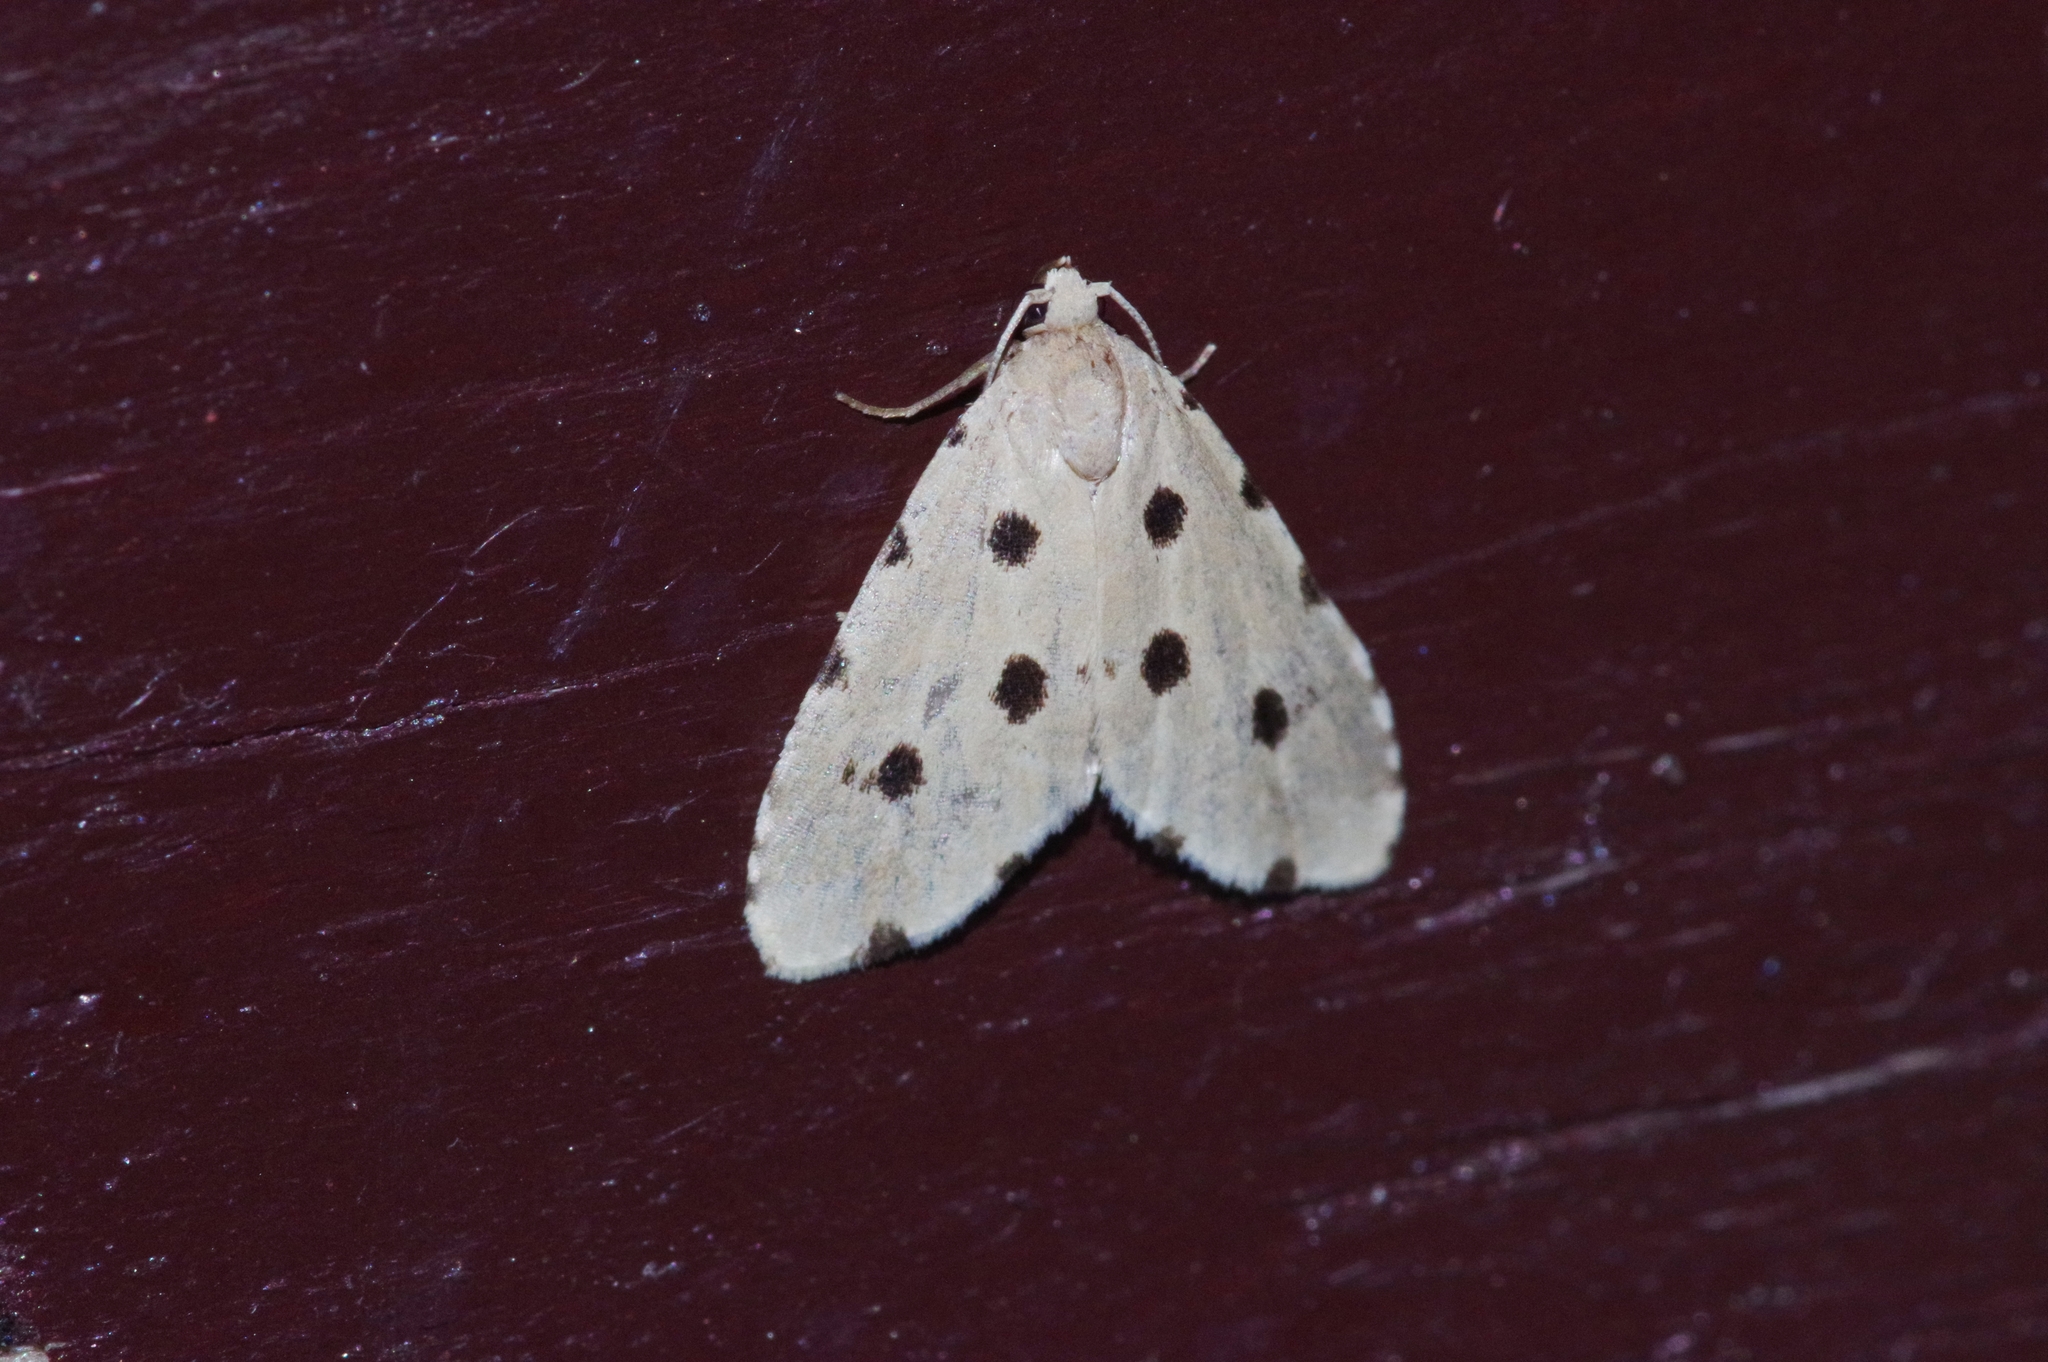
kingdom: Animalia
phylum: Arthropoda
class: Insecta
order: Lepidoptera
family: Noctuidae
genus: Metaemene
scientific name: Metaemene atrigutta
